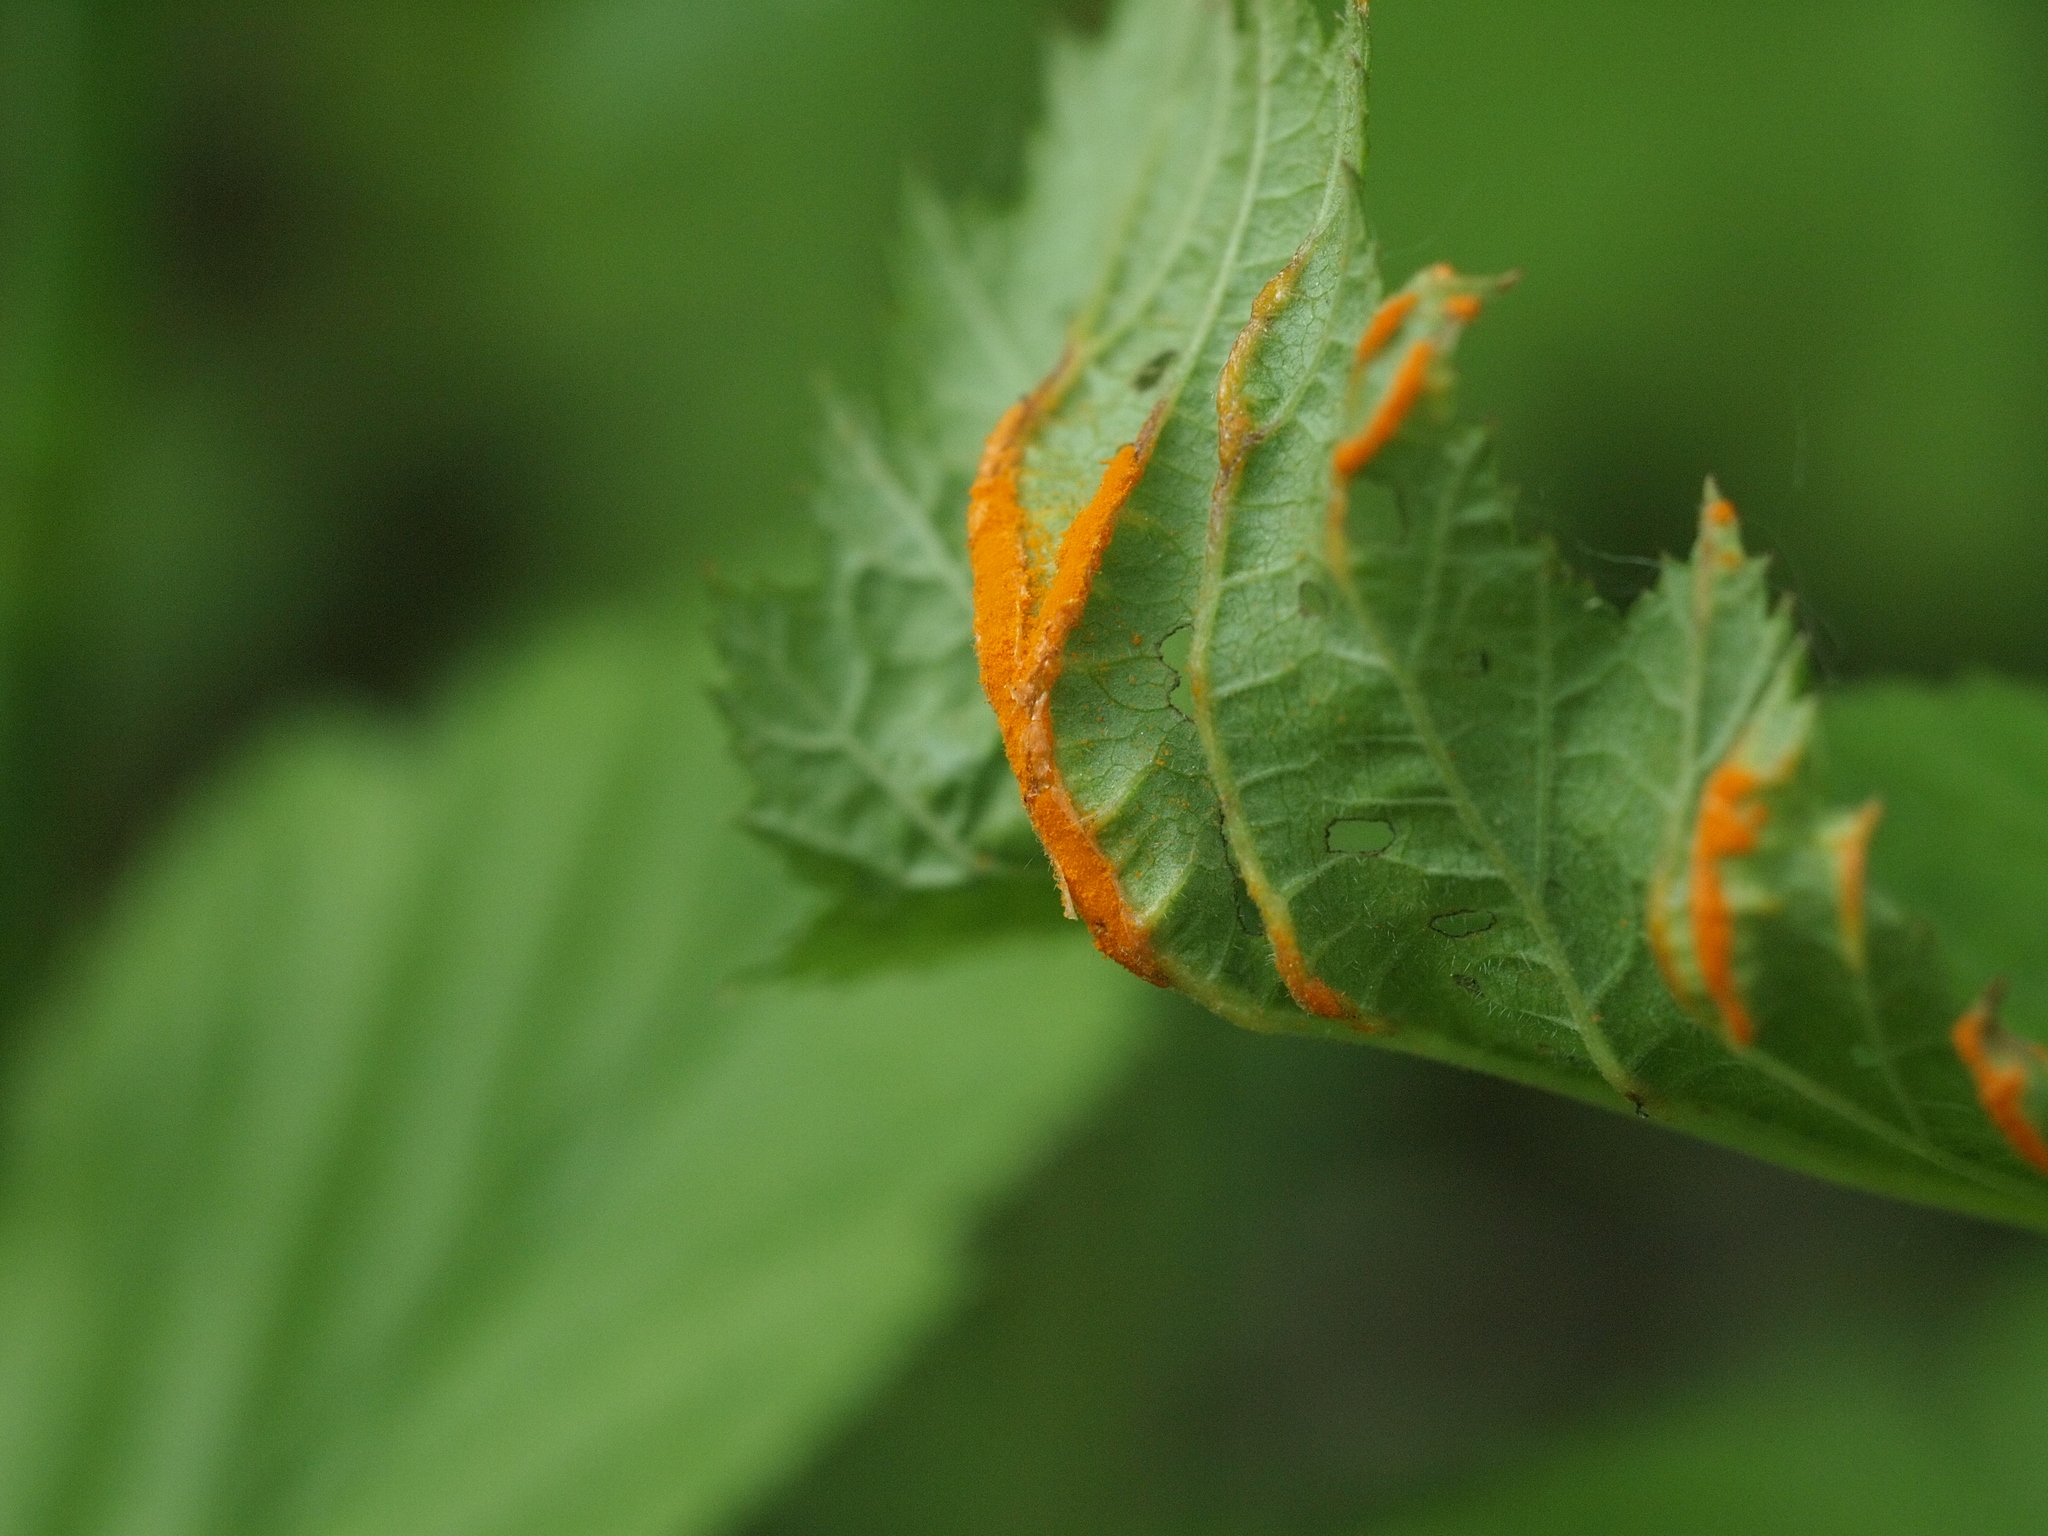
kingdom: Fungi
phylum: Basidiomycota
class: Pucciniomycetes
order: Pucciniales
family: Raveneliaceae
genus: Triphragmium
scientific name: Triphragmium ulmariae
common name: Meadowsweet rust
